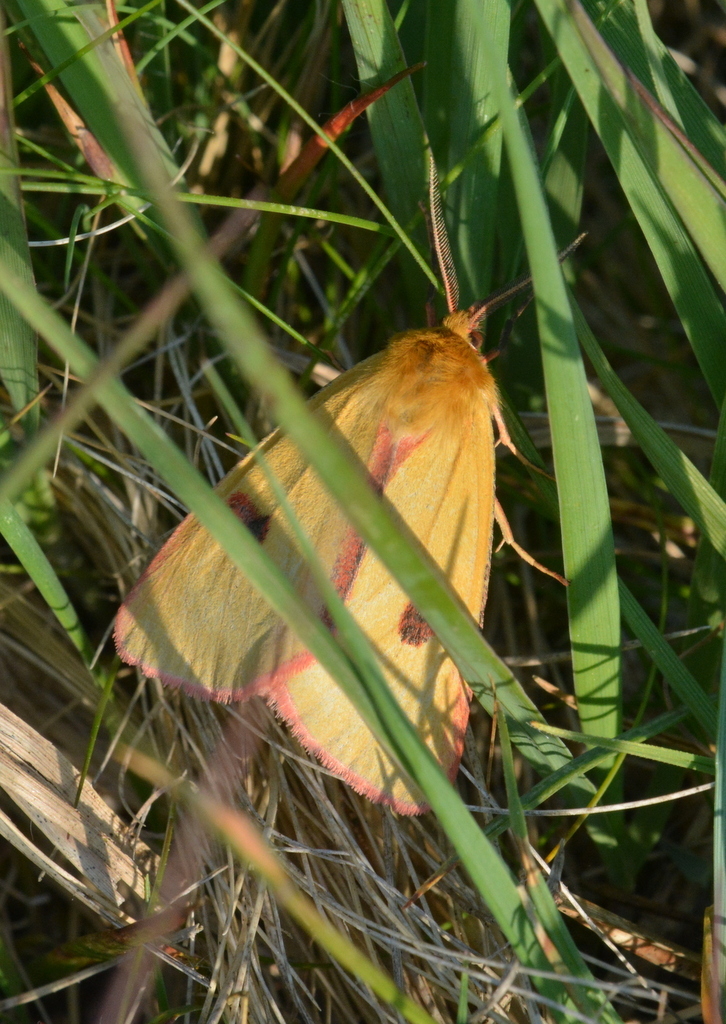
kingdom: Animalia
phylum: Arthropoda
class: Insecta
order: Lepidoptera
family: Erebidae
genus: Diacrisia
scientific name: Diacrisia sannio
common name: Clouded buff
